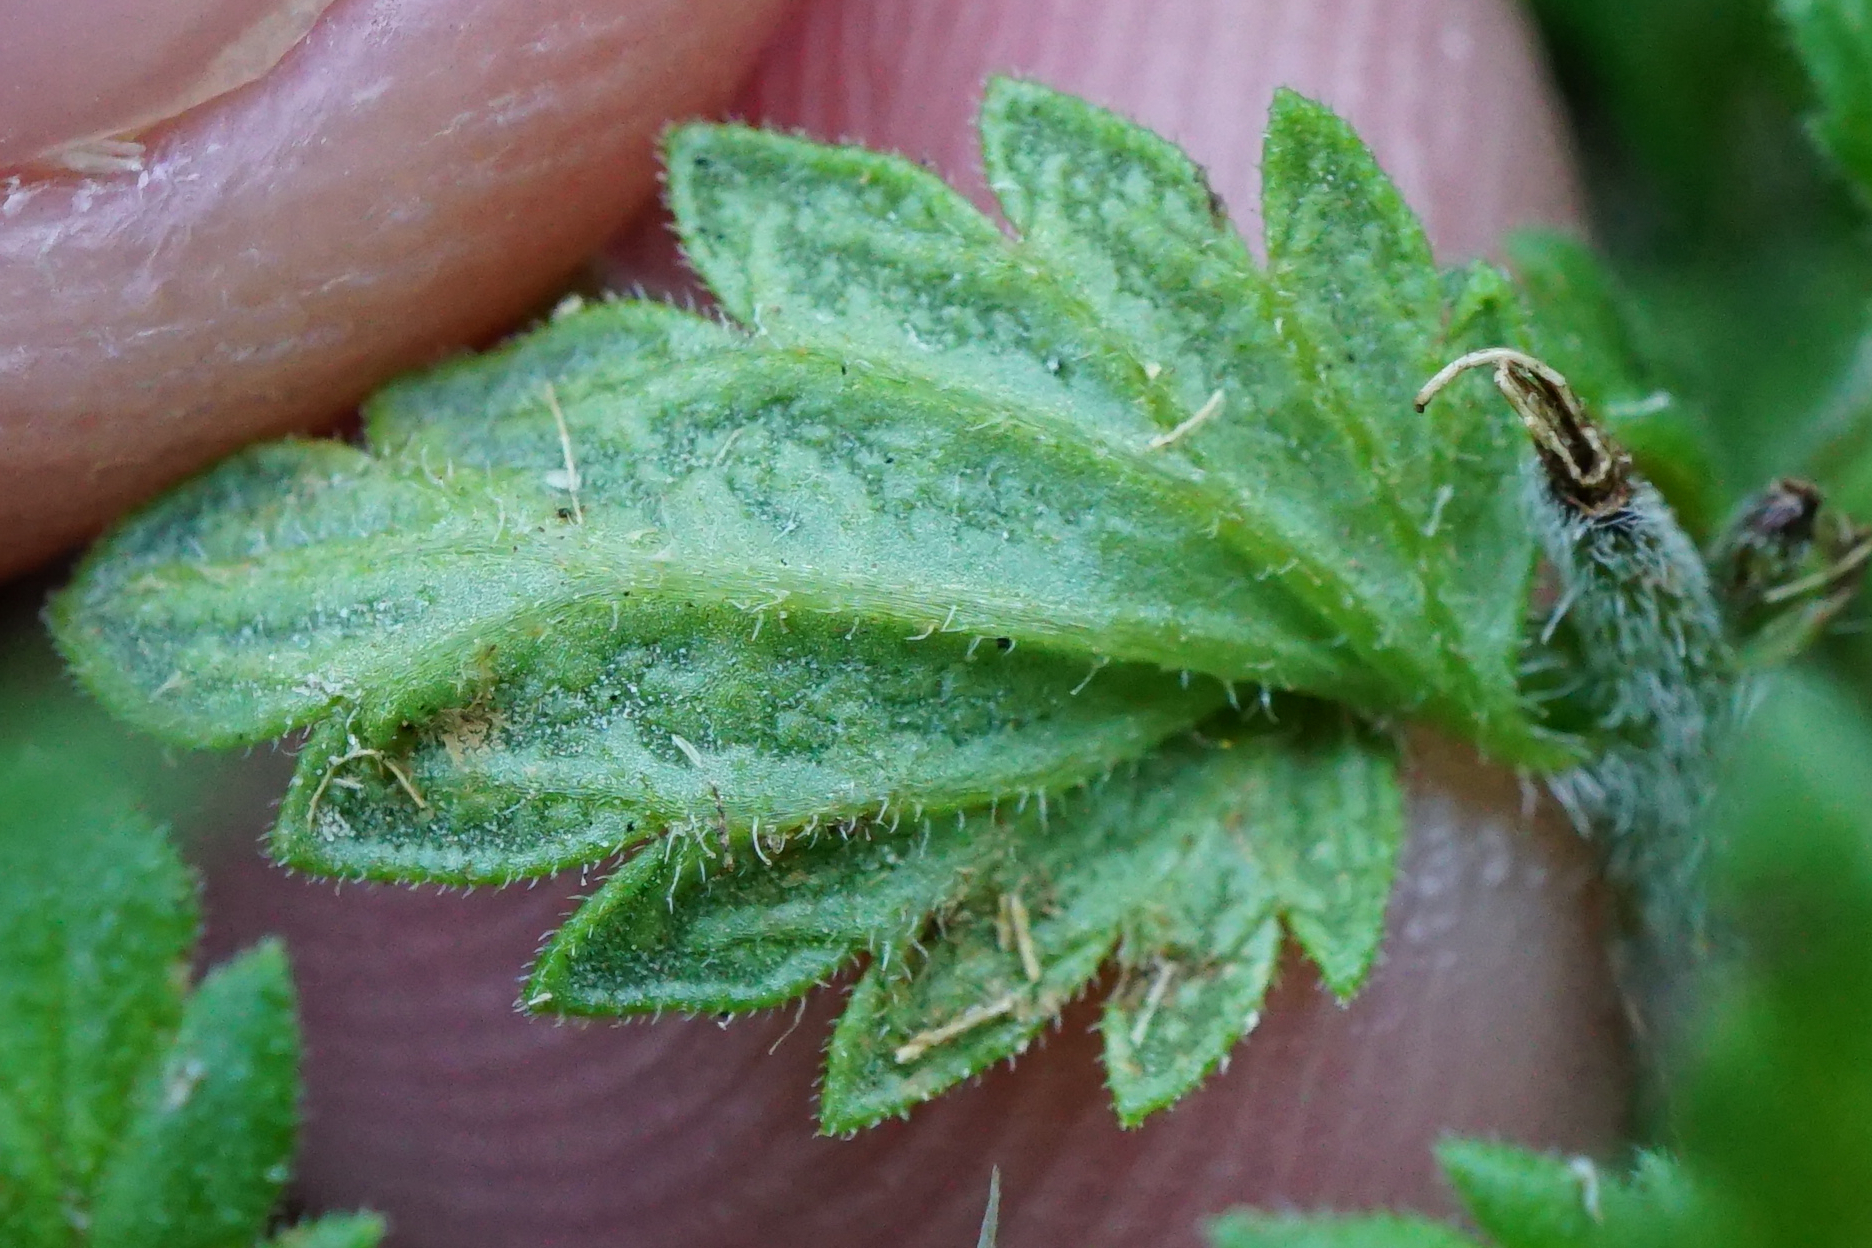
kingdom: Plantae
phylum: Tracheophyta
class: Magnoliopsida
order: Lamiales
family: Orobanchaceae
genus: Euphrasia
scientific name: Euphrasia officinalis
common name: Eyebright
